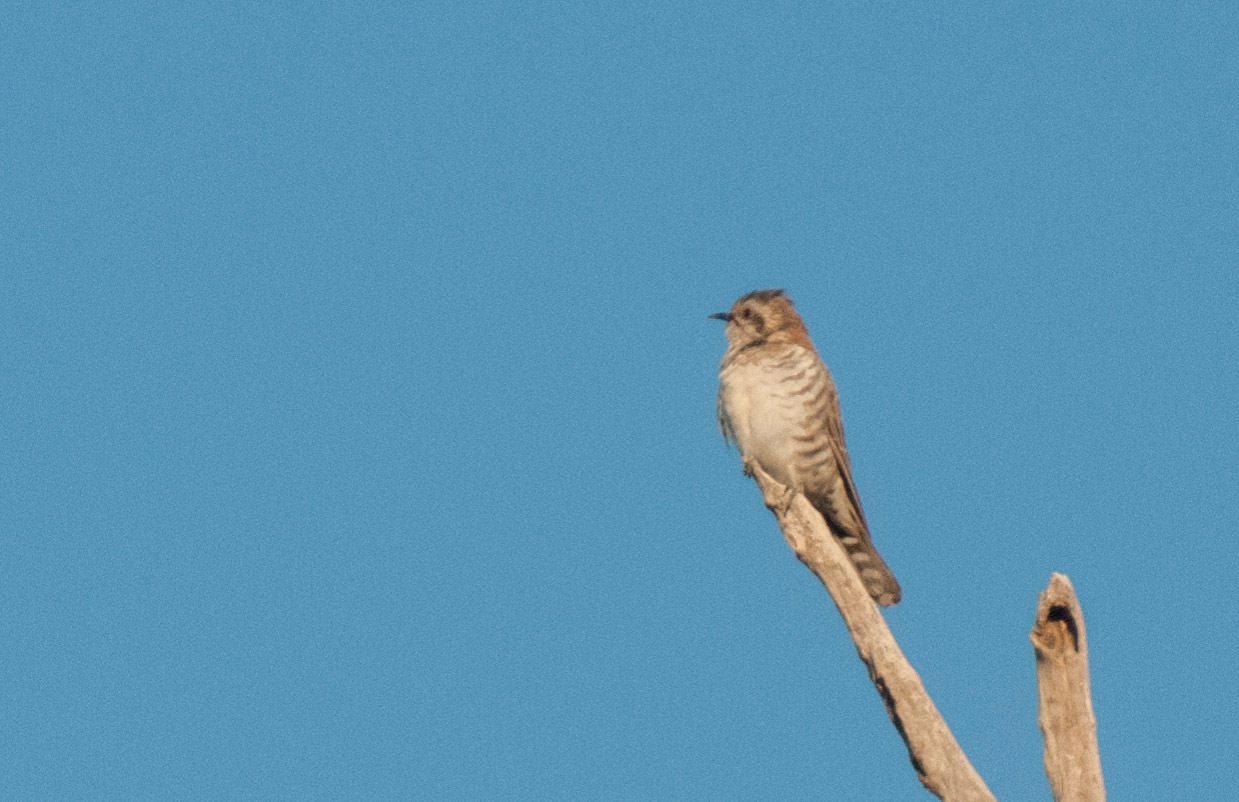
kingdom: Animalia
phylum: Chordata
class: Aves
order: Cuculiformes
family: Cuculidae
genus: Chrysococcyx
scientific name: Chrysococcyx basalis
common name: Horsfield's bronze cuckoo
